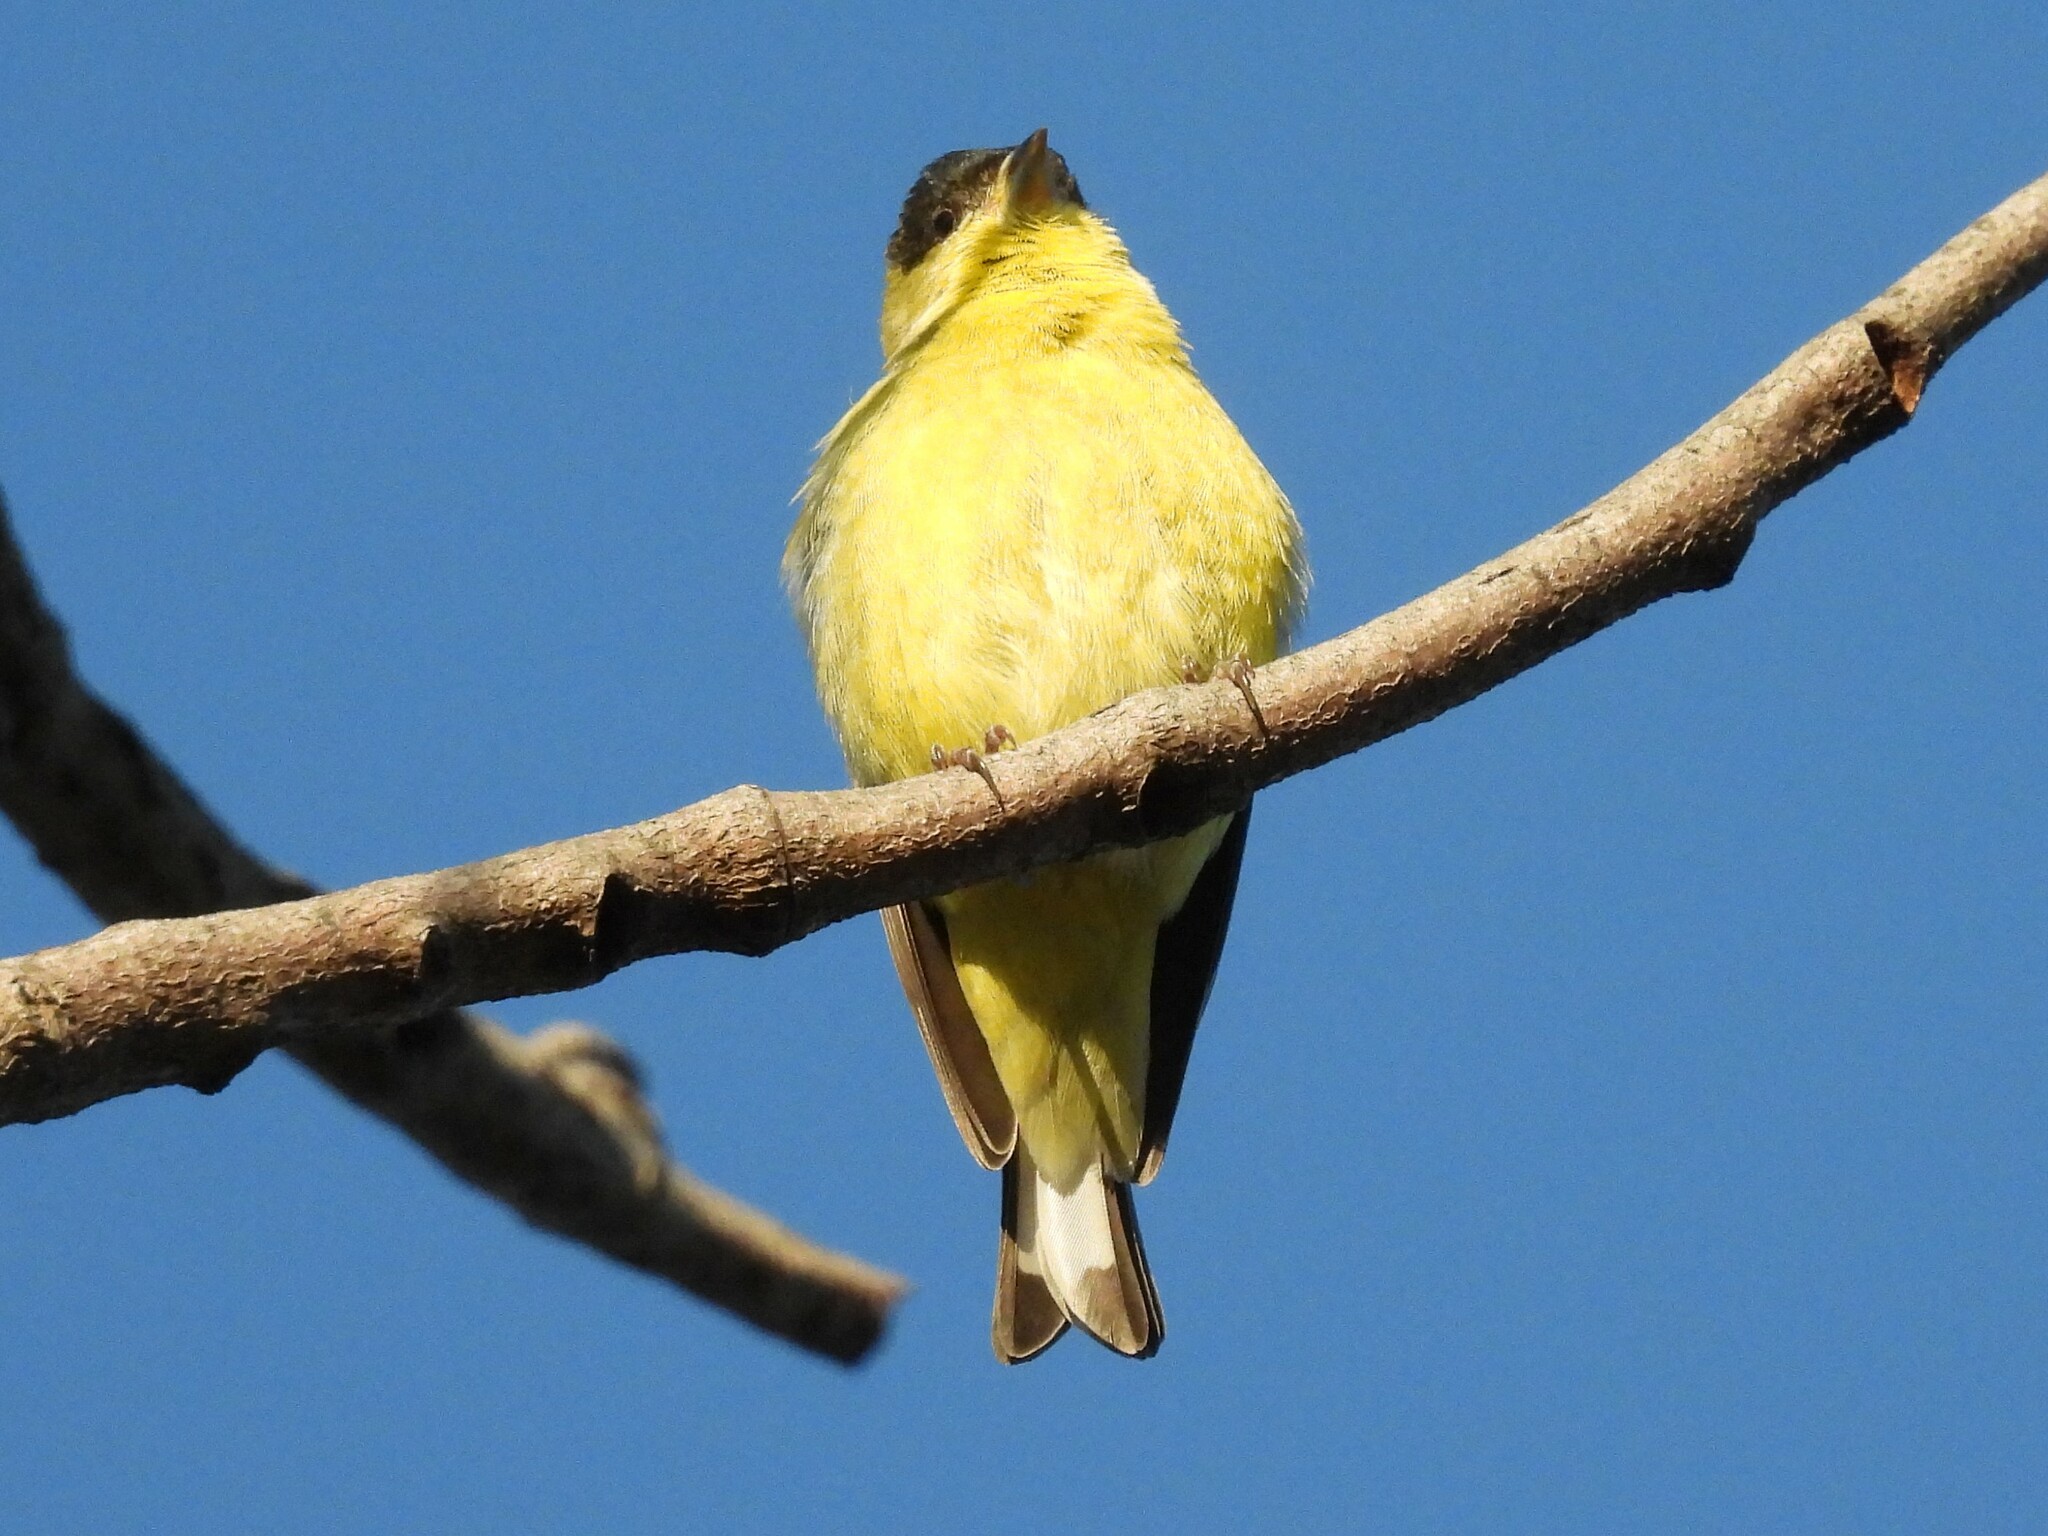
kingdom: Animalia
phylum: Chordata
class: Aves
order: Passeriformes
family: Fringillidae
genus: Spinus
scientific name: Spinus psaltria
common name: Lesser goldfinch
